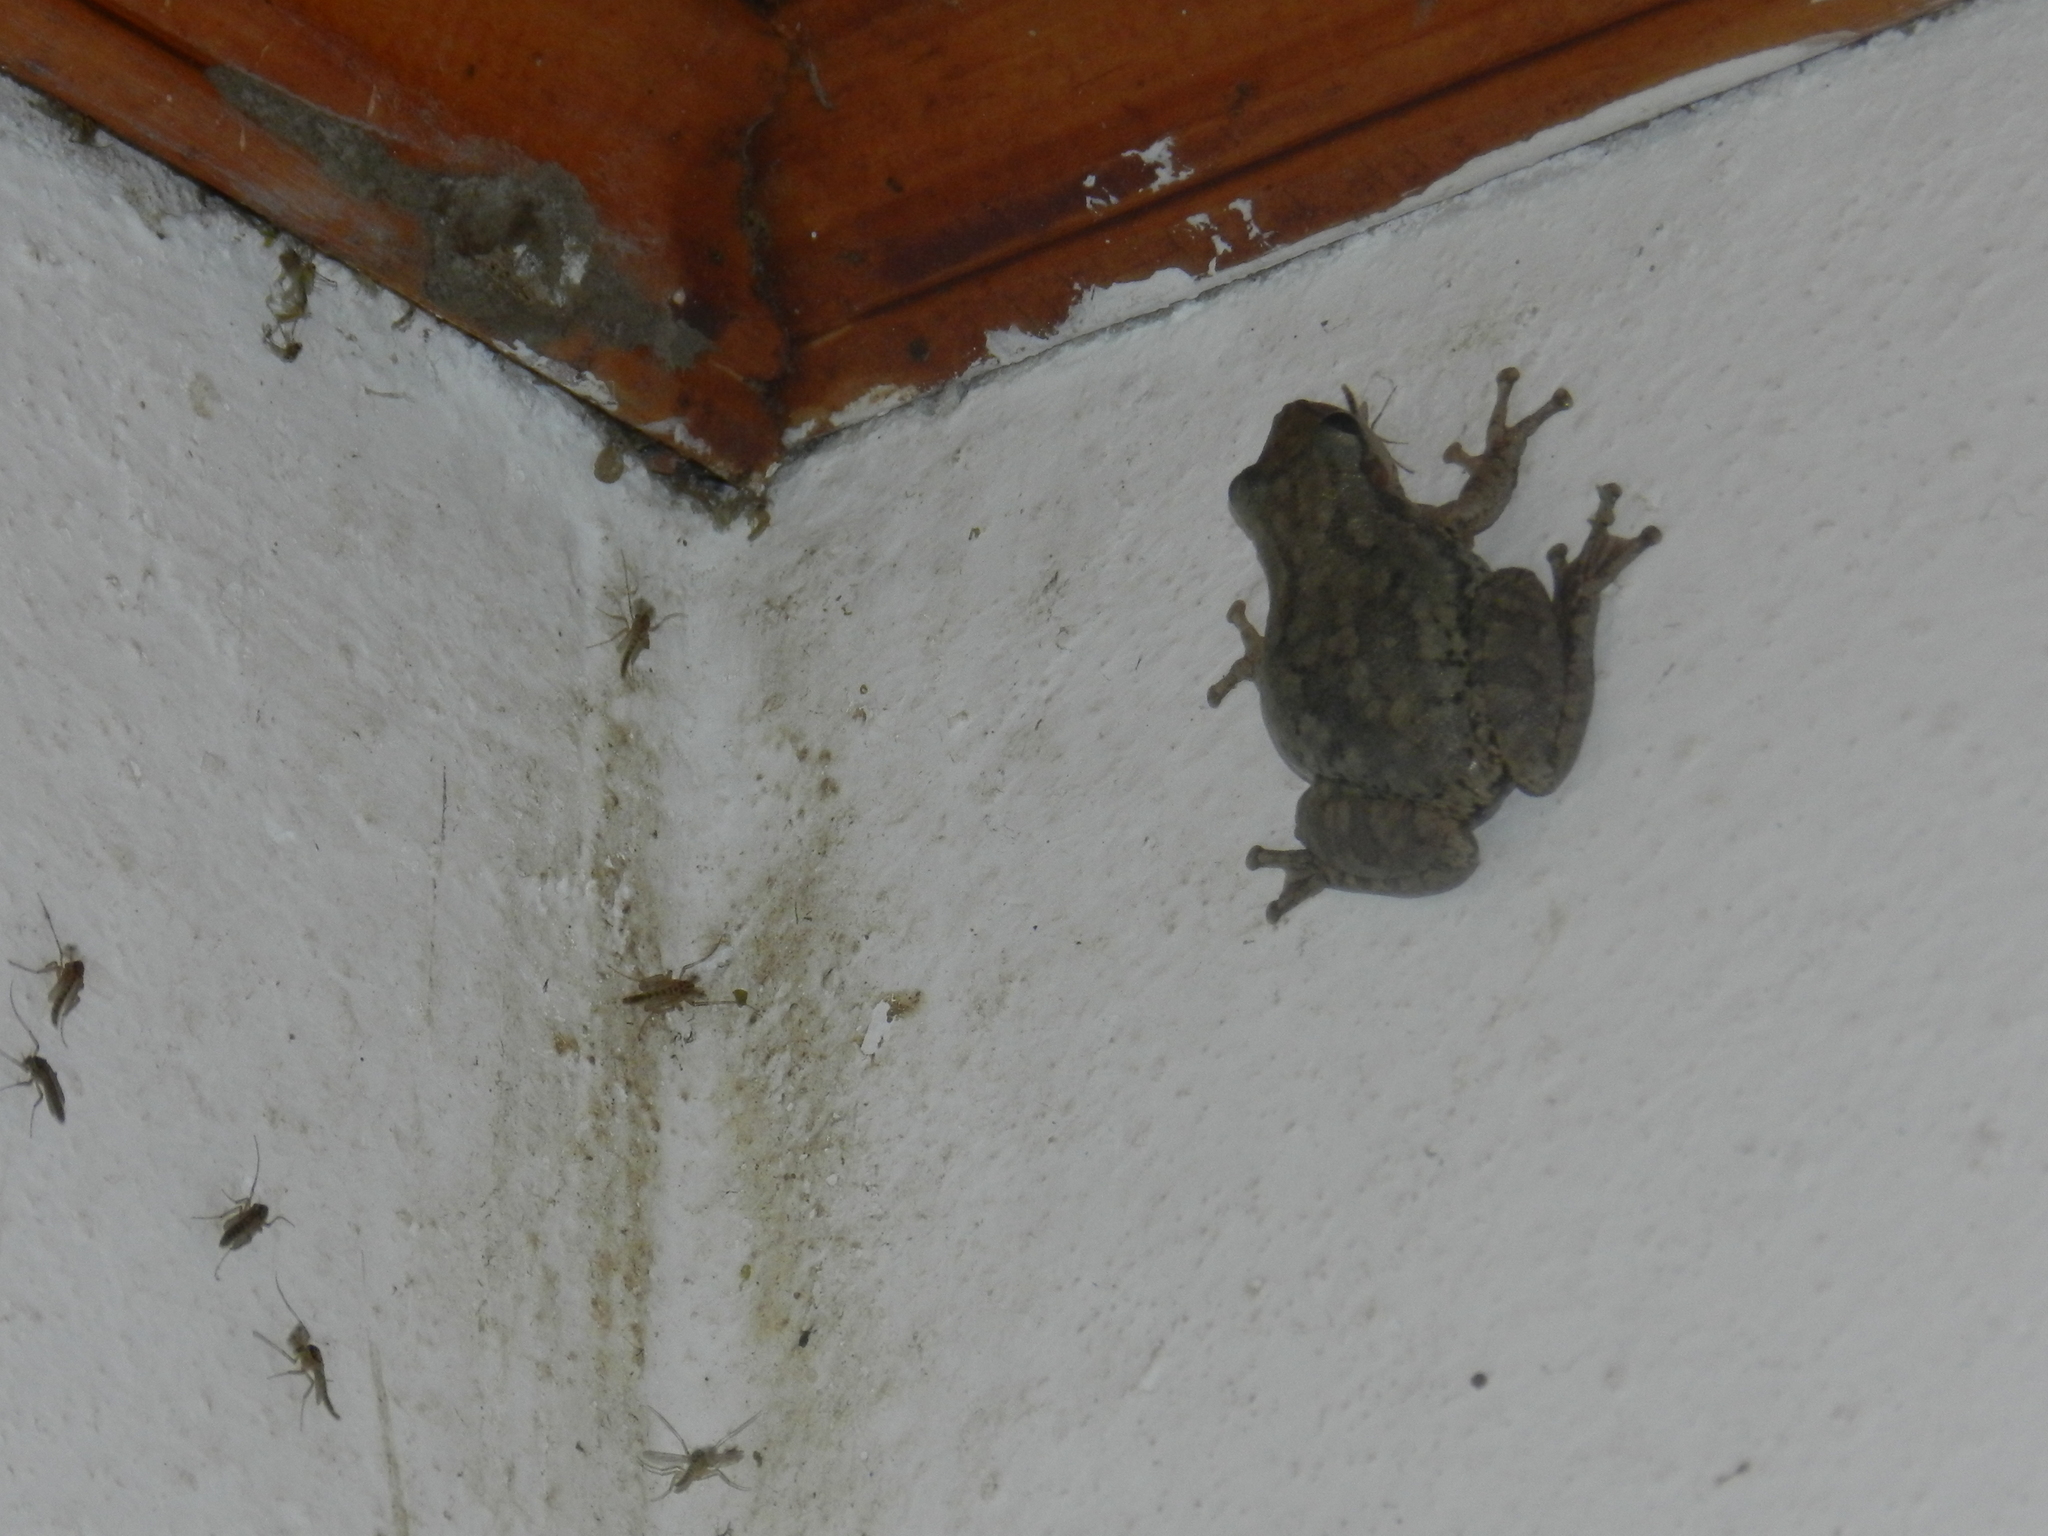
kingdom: Animalia
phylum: Chordata
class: Amphibia
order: Anura
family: Hylidae
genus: Scinax
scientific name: Scinax nasicus
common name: Lesser snouted treefrog
